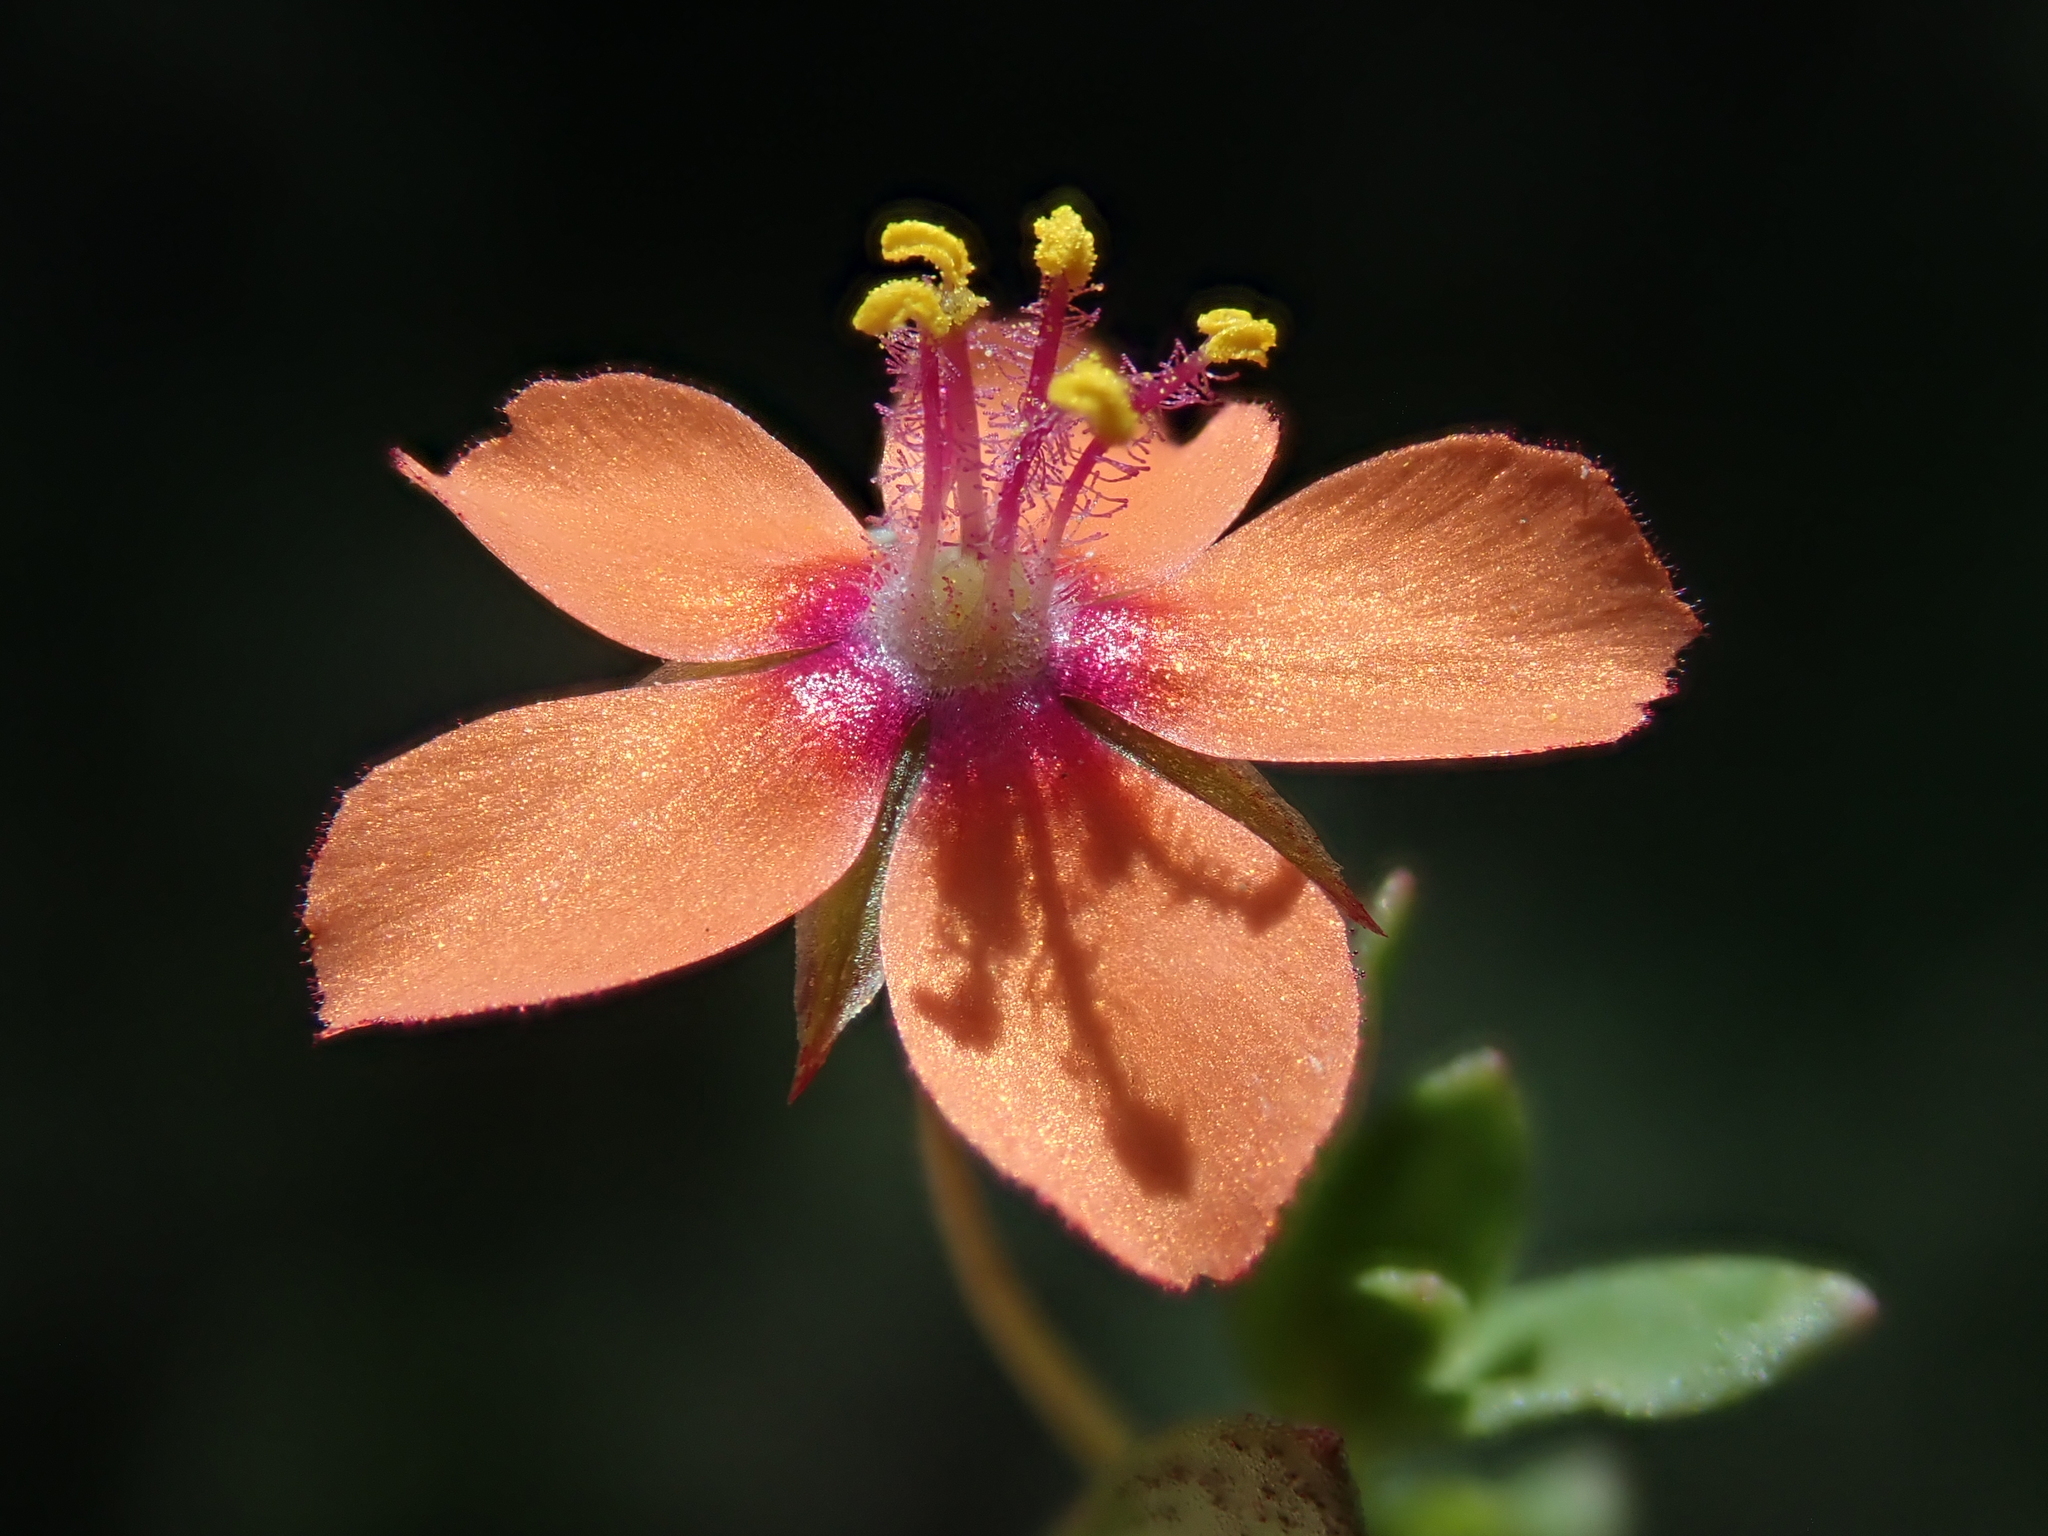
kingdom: Plantae
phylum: Tracheophyta
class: Magnoliopsida
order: Ericales
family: Primulaceae
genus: Lysimachia
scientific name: Lysimachia arvensis
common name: Scarlet pimpernel
